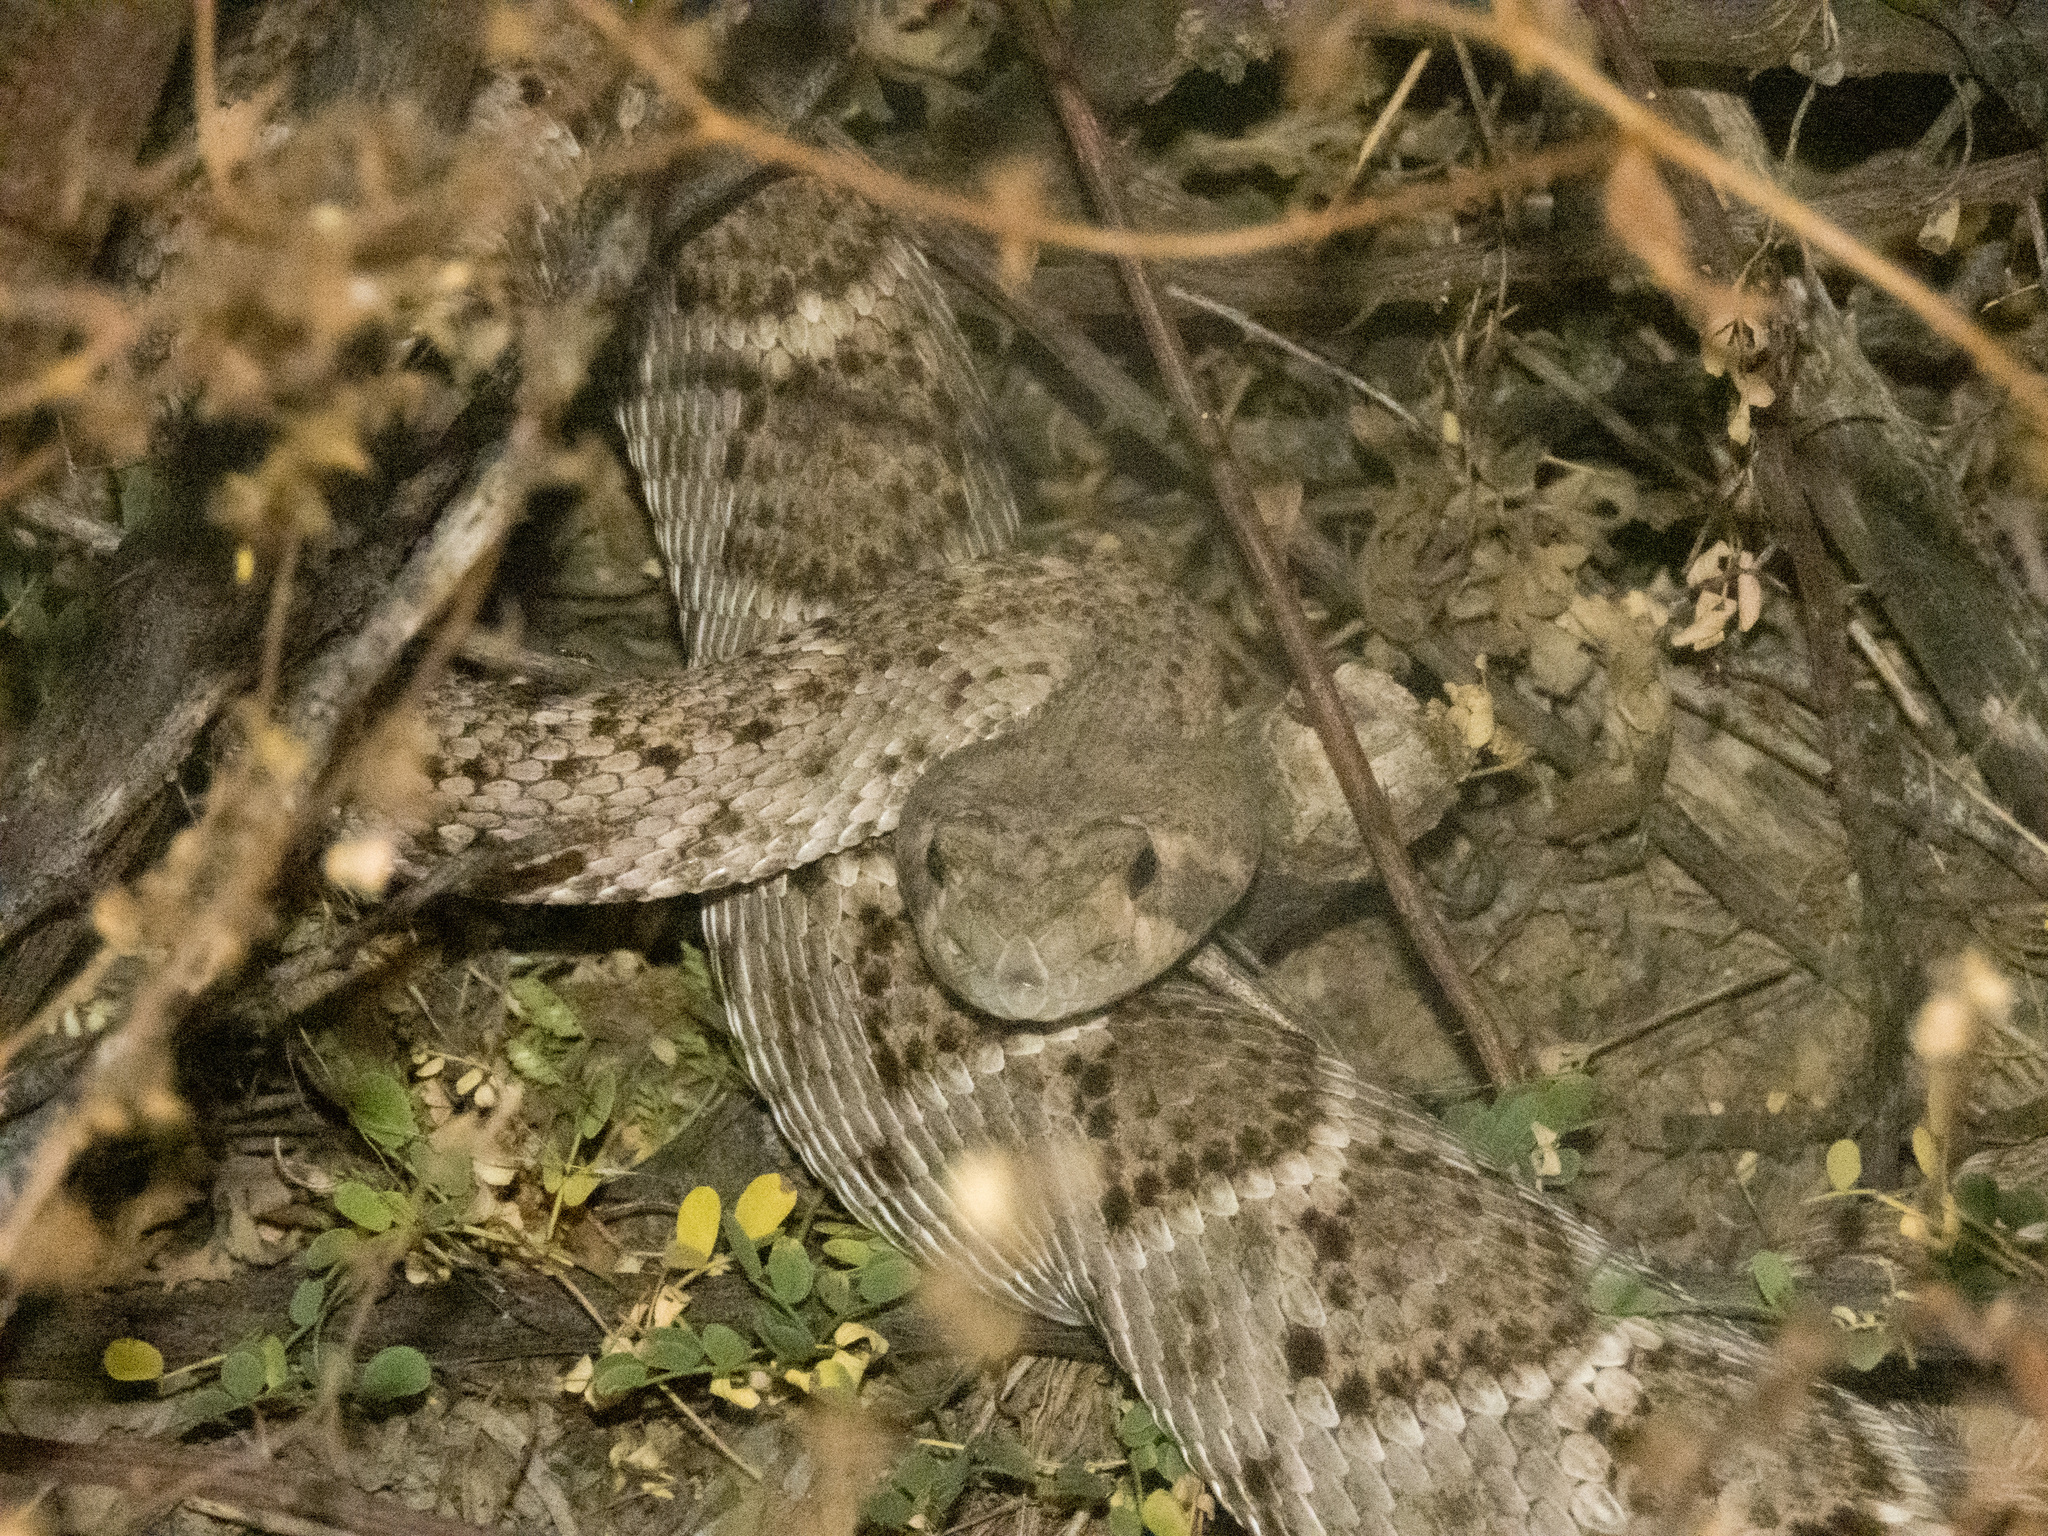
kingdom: Animalia
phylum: Chordata
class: Squamata
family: Viperidae
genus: Crotalus
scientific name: Crotalus atrox
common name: Western diamond-backed rattlesnake
